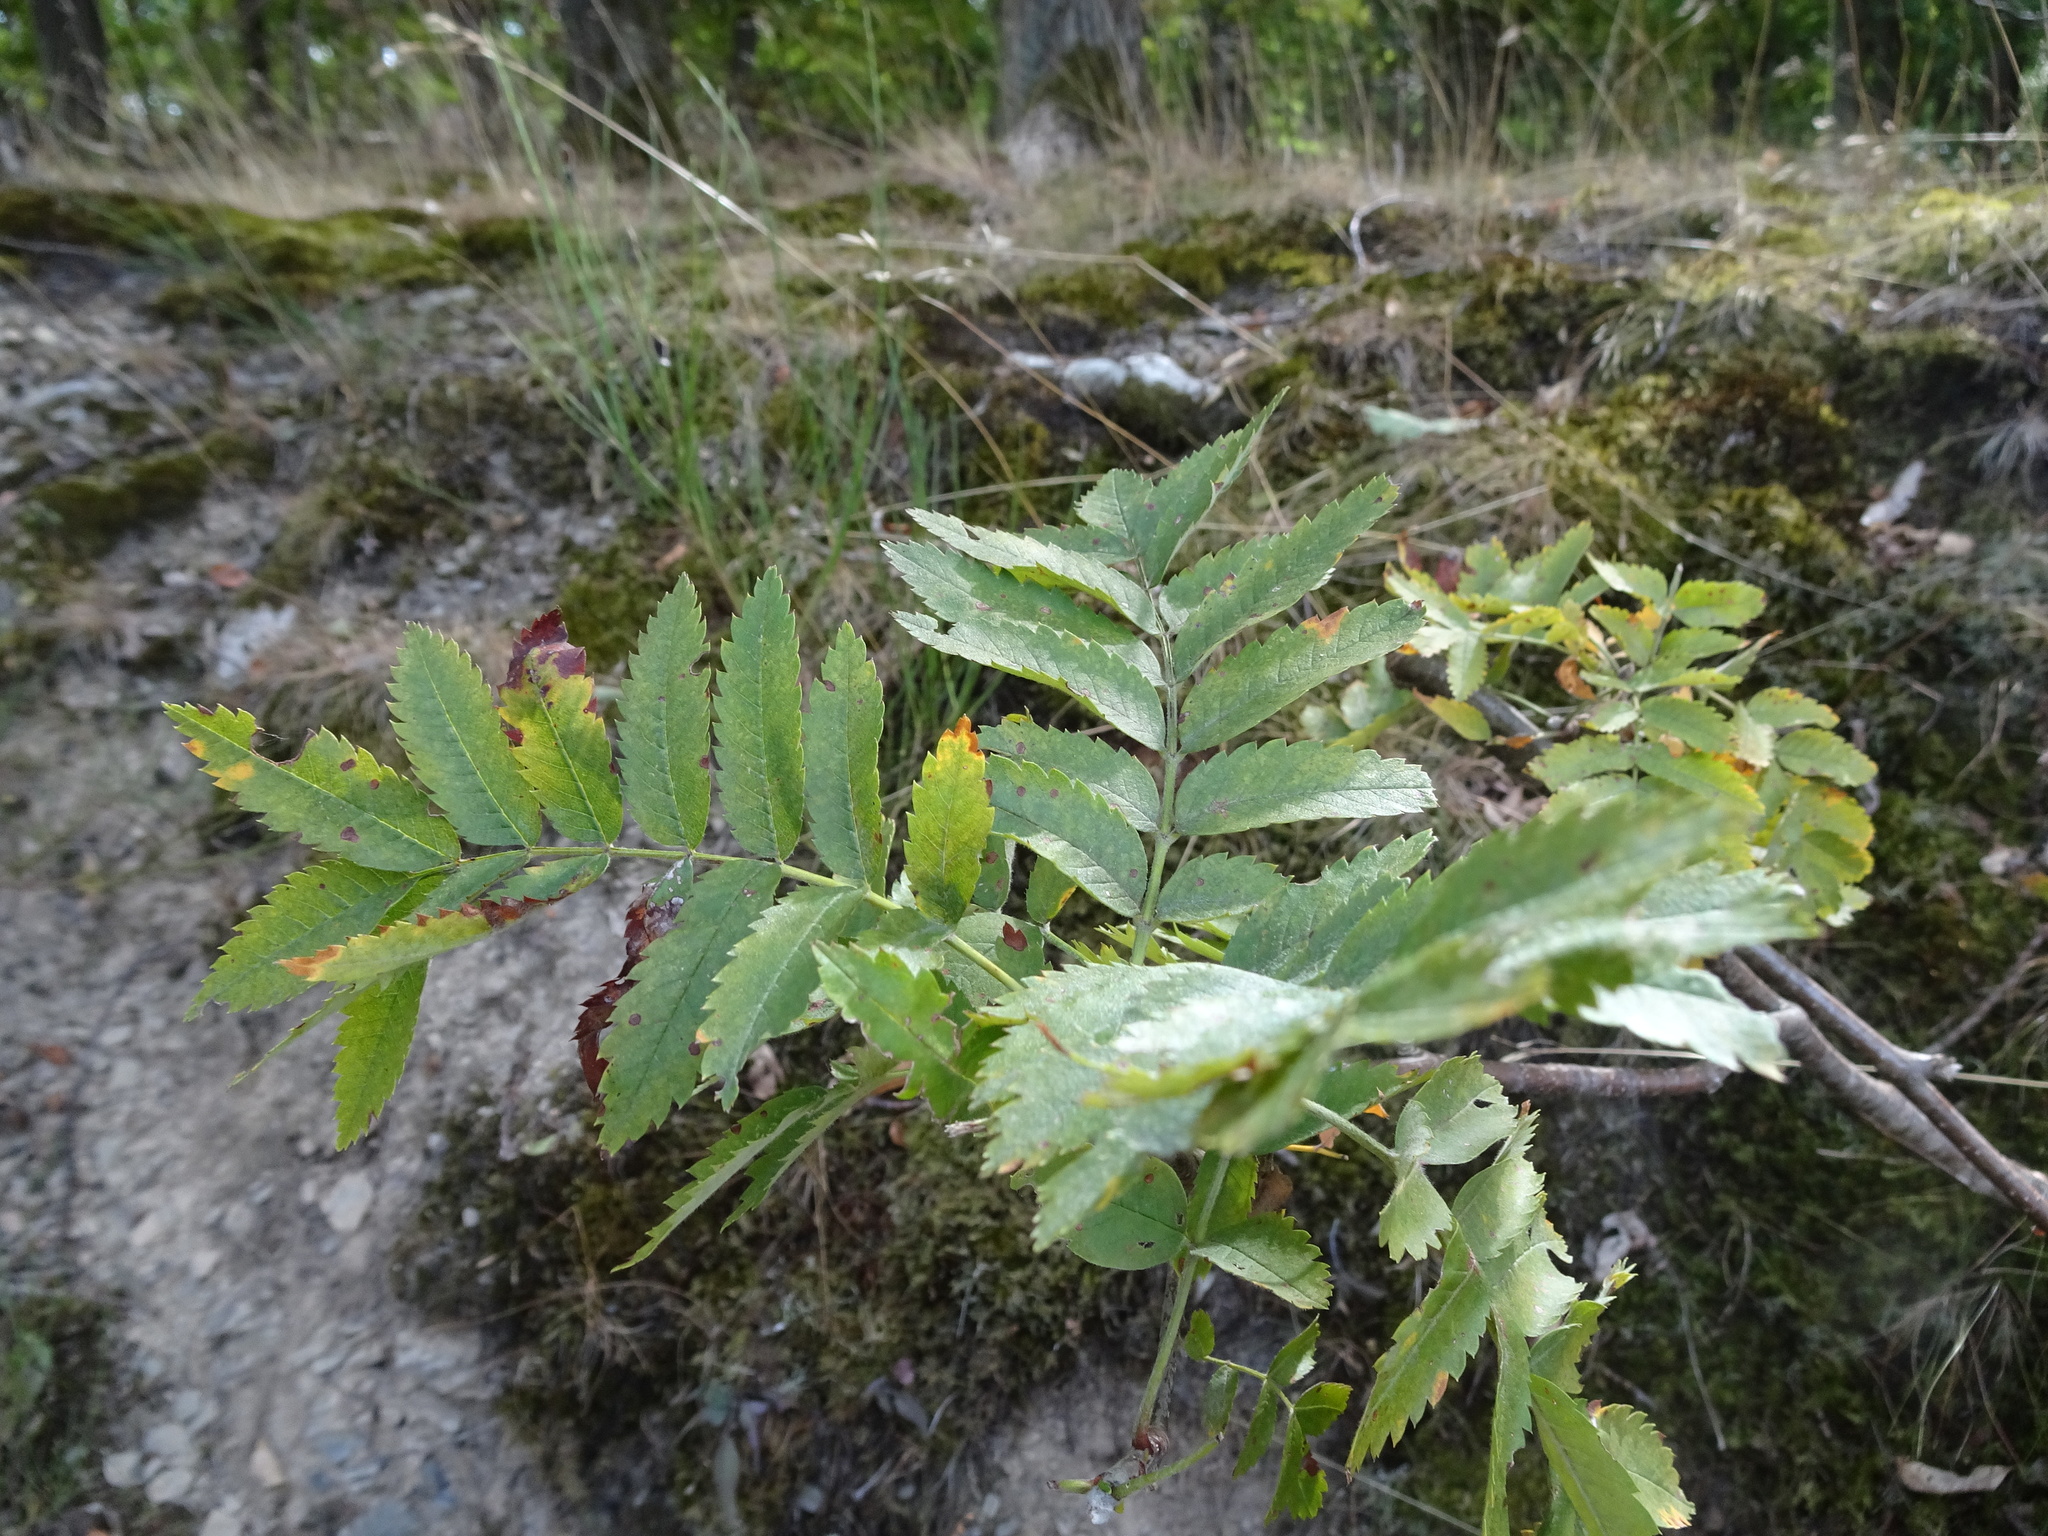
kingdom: Plantae
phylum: Tracheophyta
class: Magnoliopsida
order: Rosales
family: Rosaceae
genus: Sorbus
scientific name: Sorbus aucuparia
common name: Rowan
